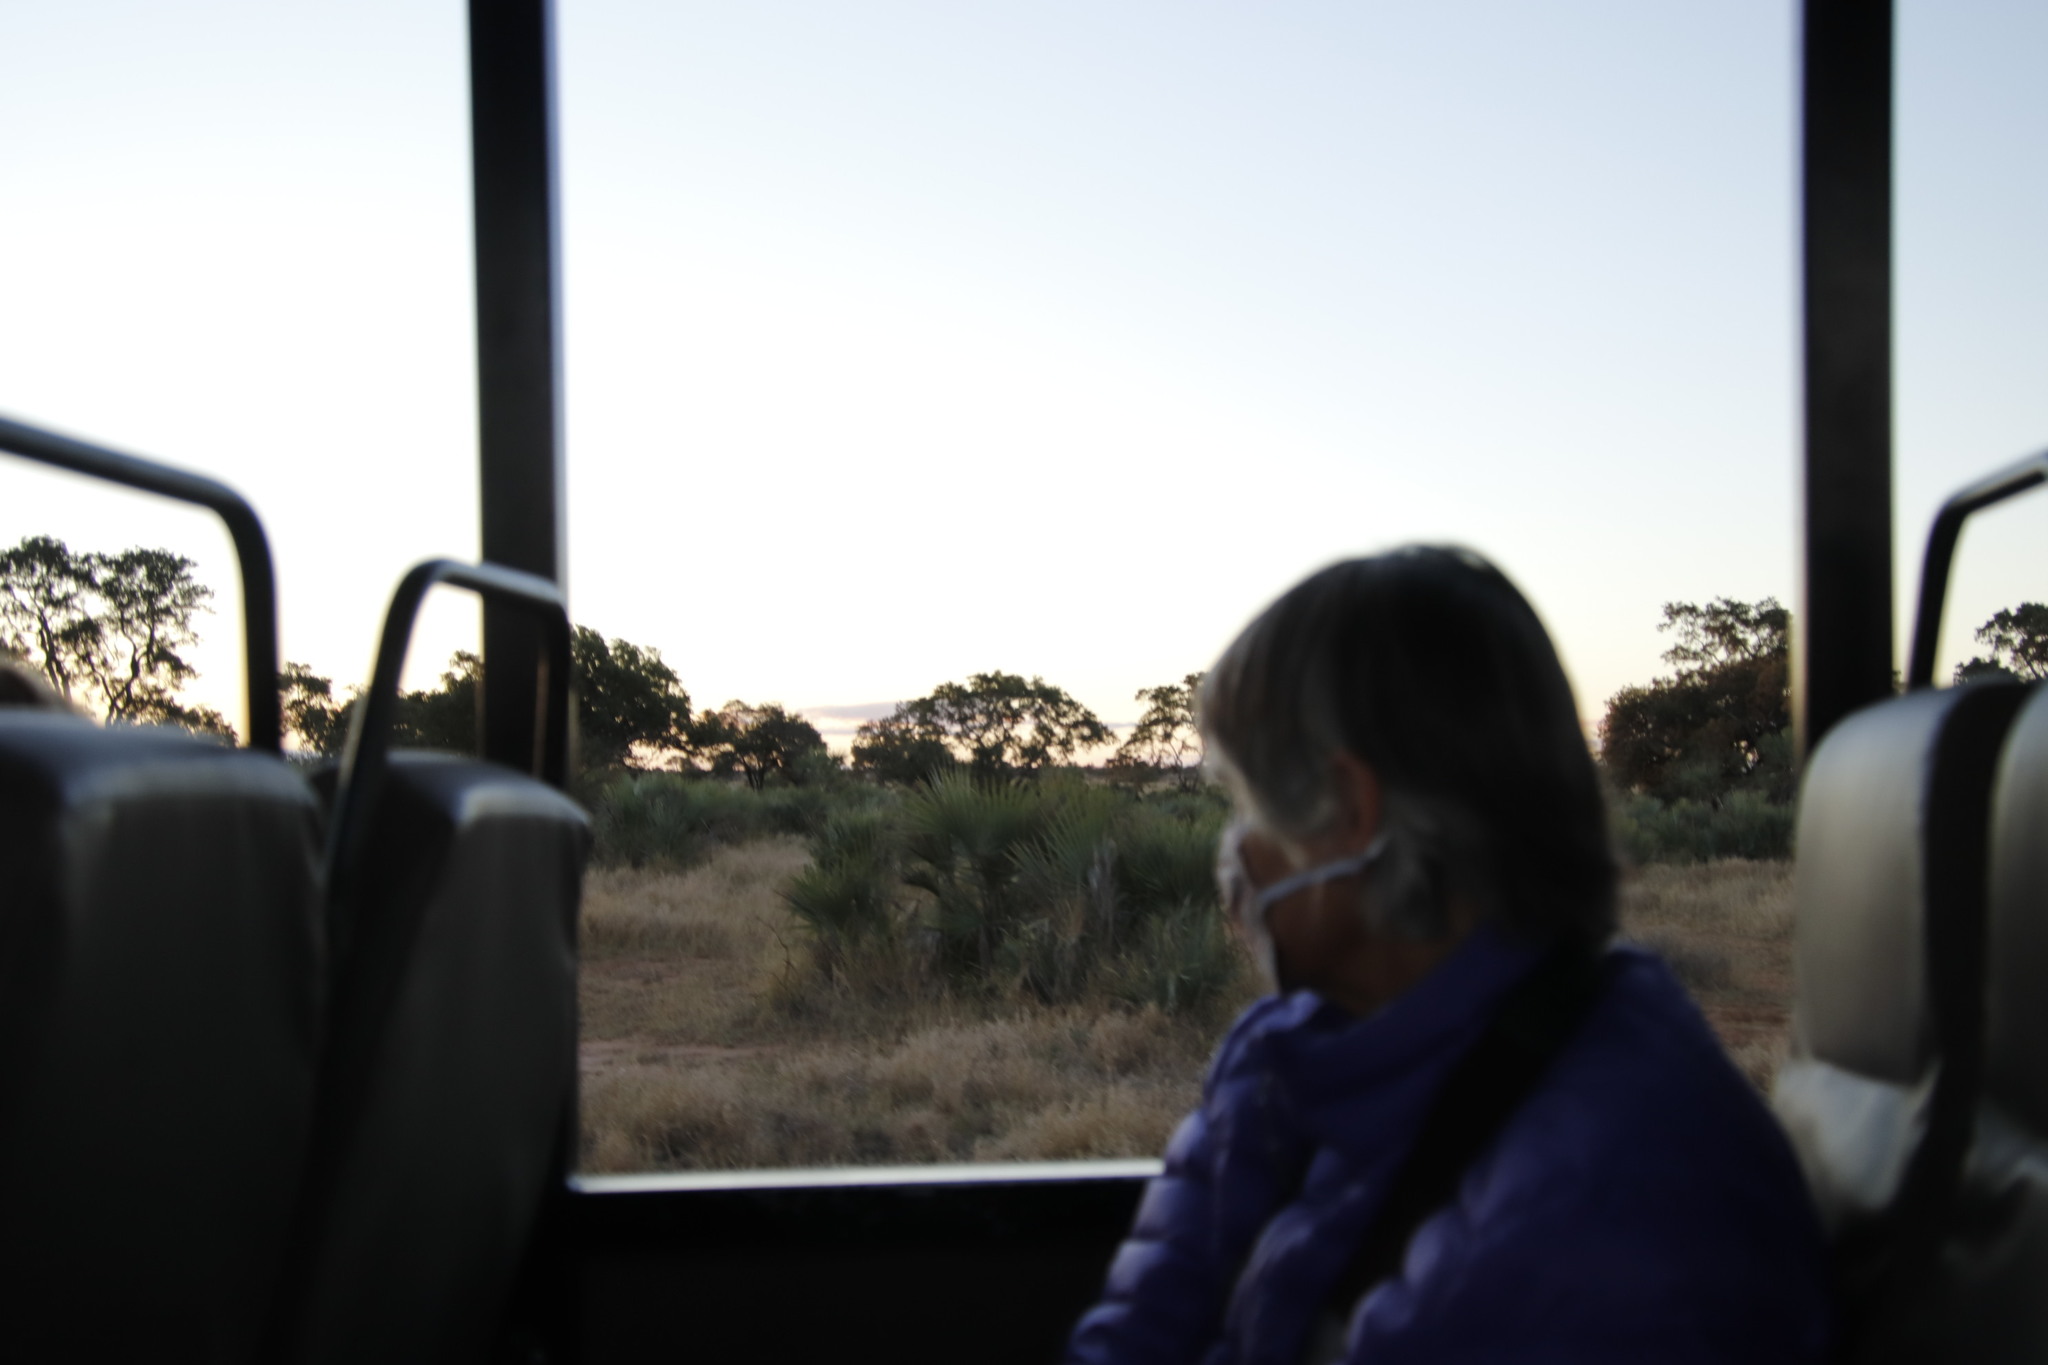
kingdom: Plantae
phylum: Tracheophyta
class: Liliopsida
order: Arecales
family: Arecaceae
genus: Hyphaene
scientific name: Hyphaene coriacea
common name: Ilala palm
